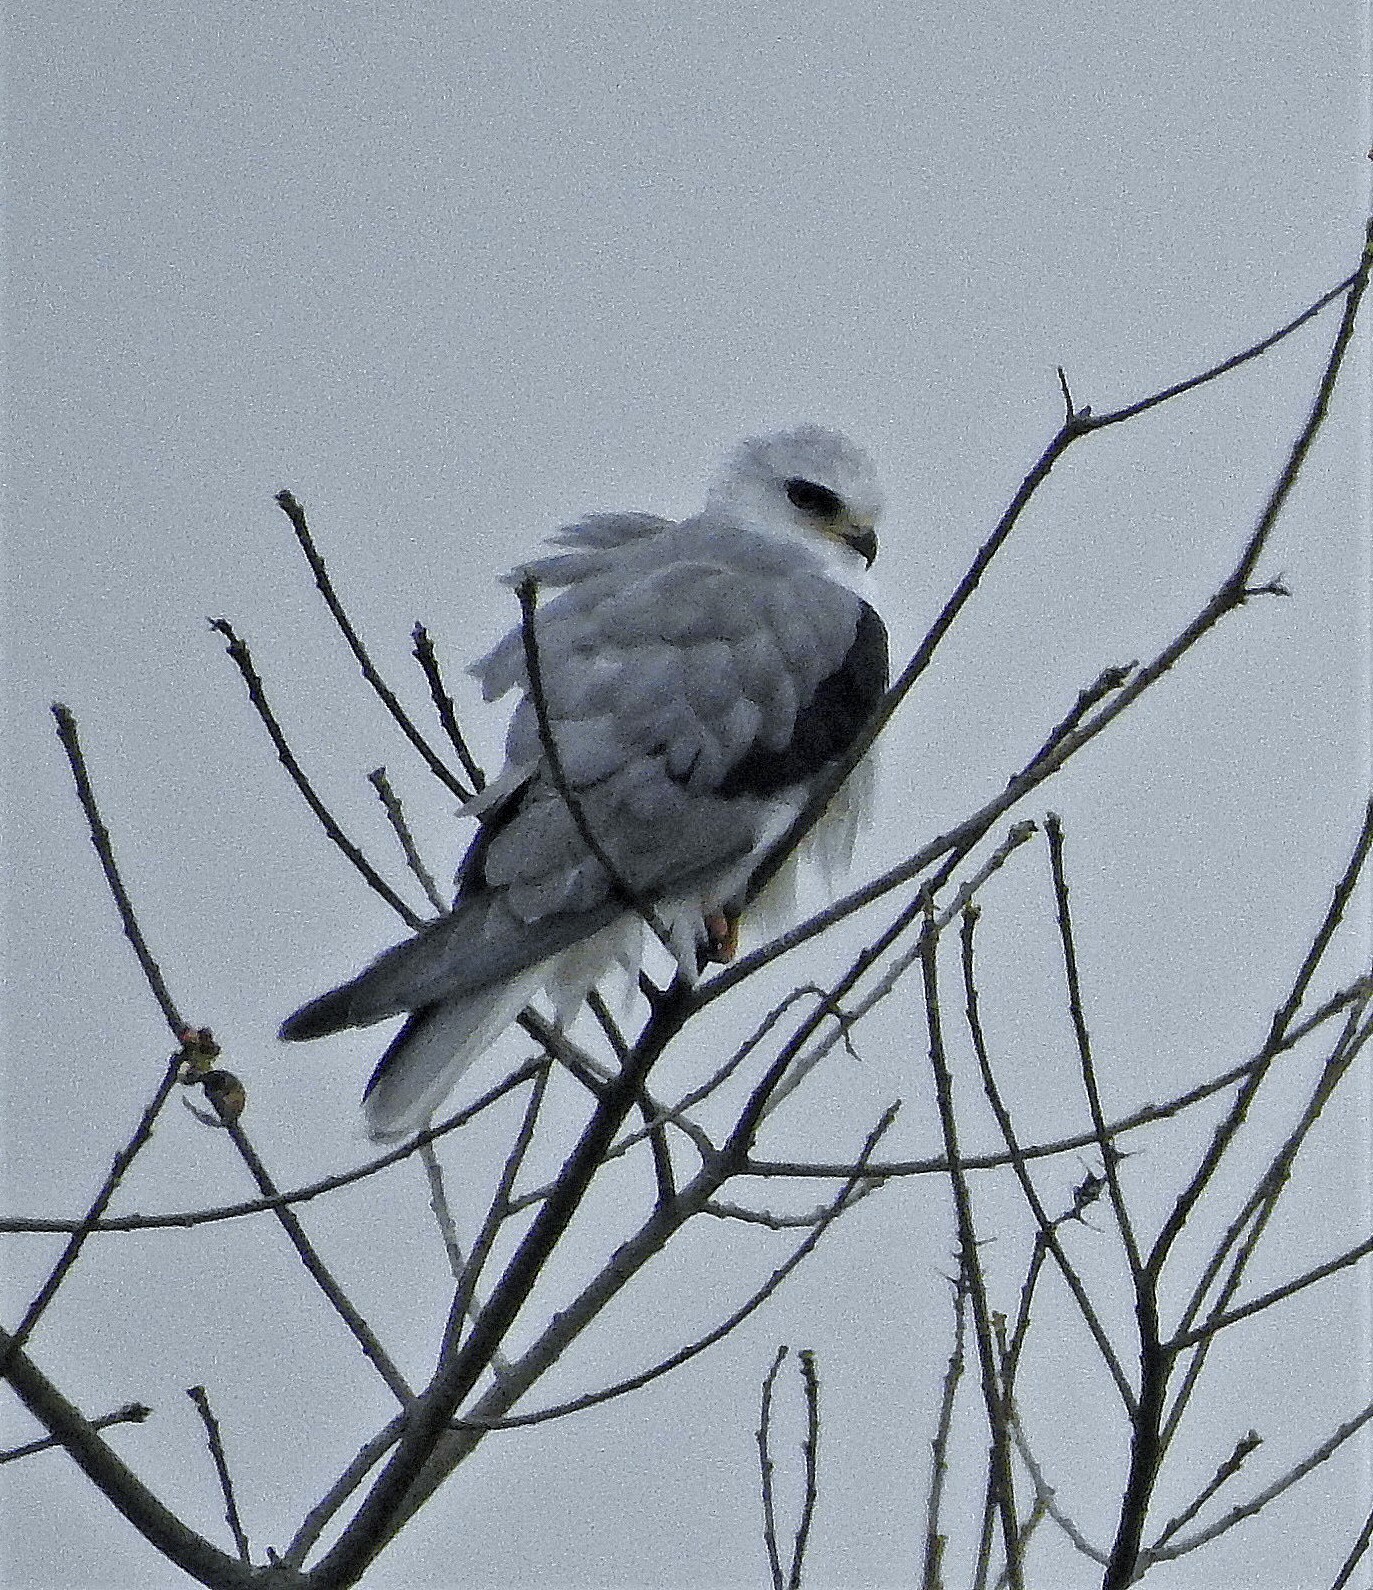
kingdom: Animalia
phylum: Chordata
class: Aves
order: Accipitriformes
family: Accipitridae
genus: Elanus
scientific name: Elanus leucurus
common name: White-tailed kite
